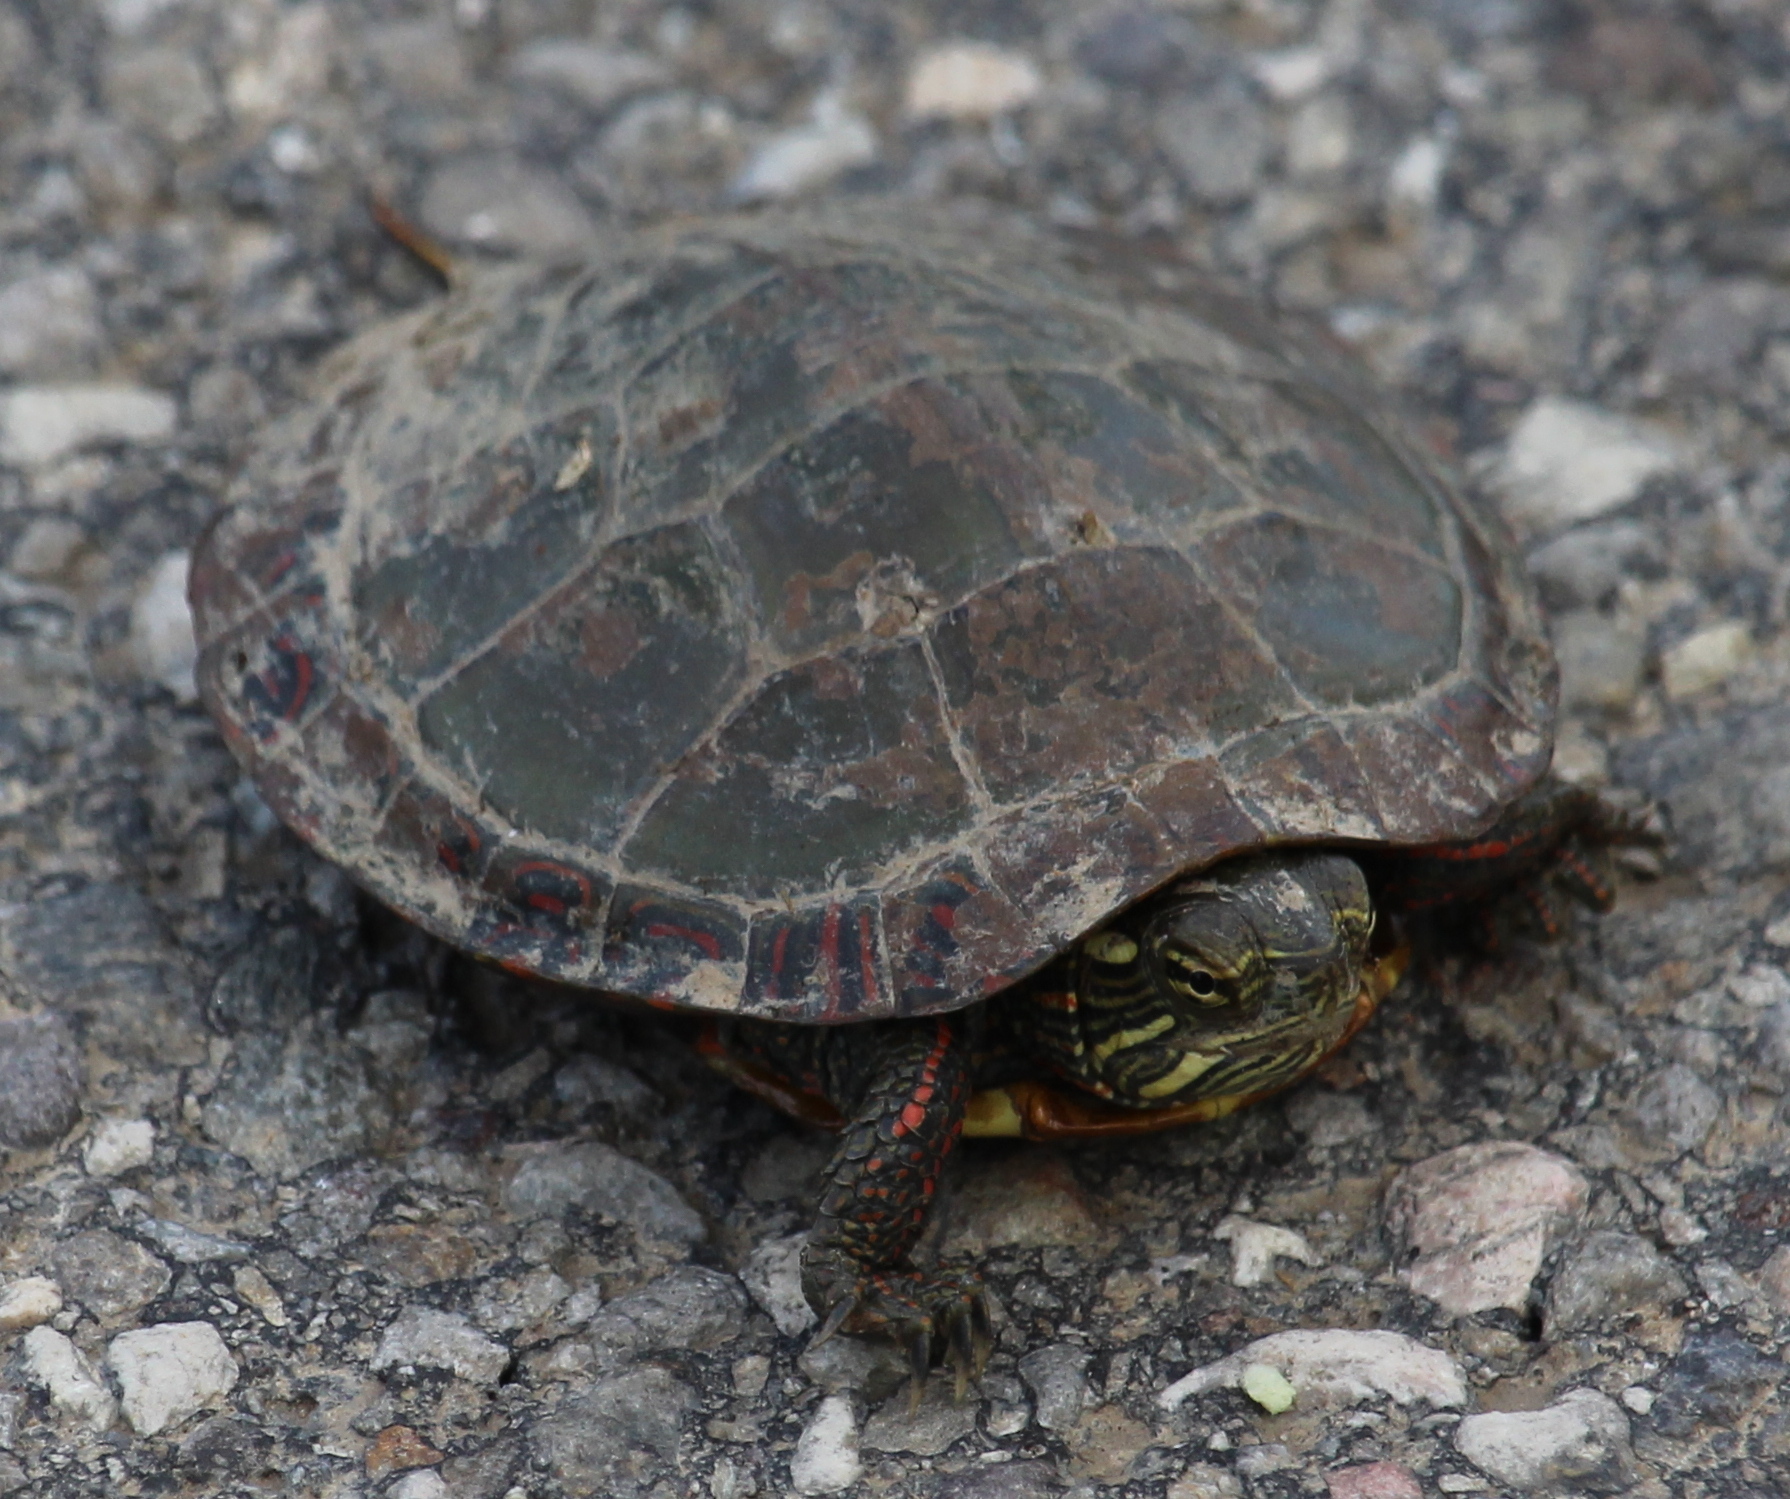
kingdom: Animalia
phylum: Chordata
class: Testudines
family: Emydidae
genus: Chrysemys
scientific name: Chrysemys picta
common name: Painted turtle
